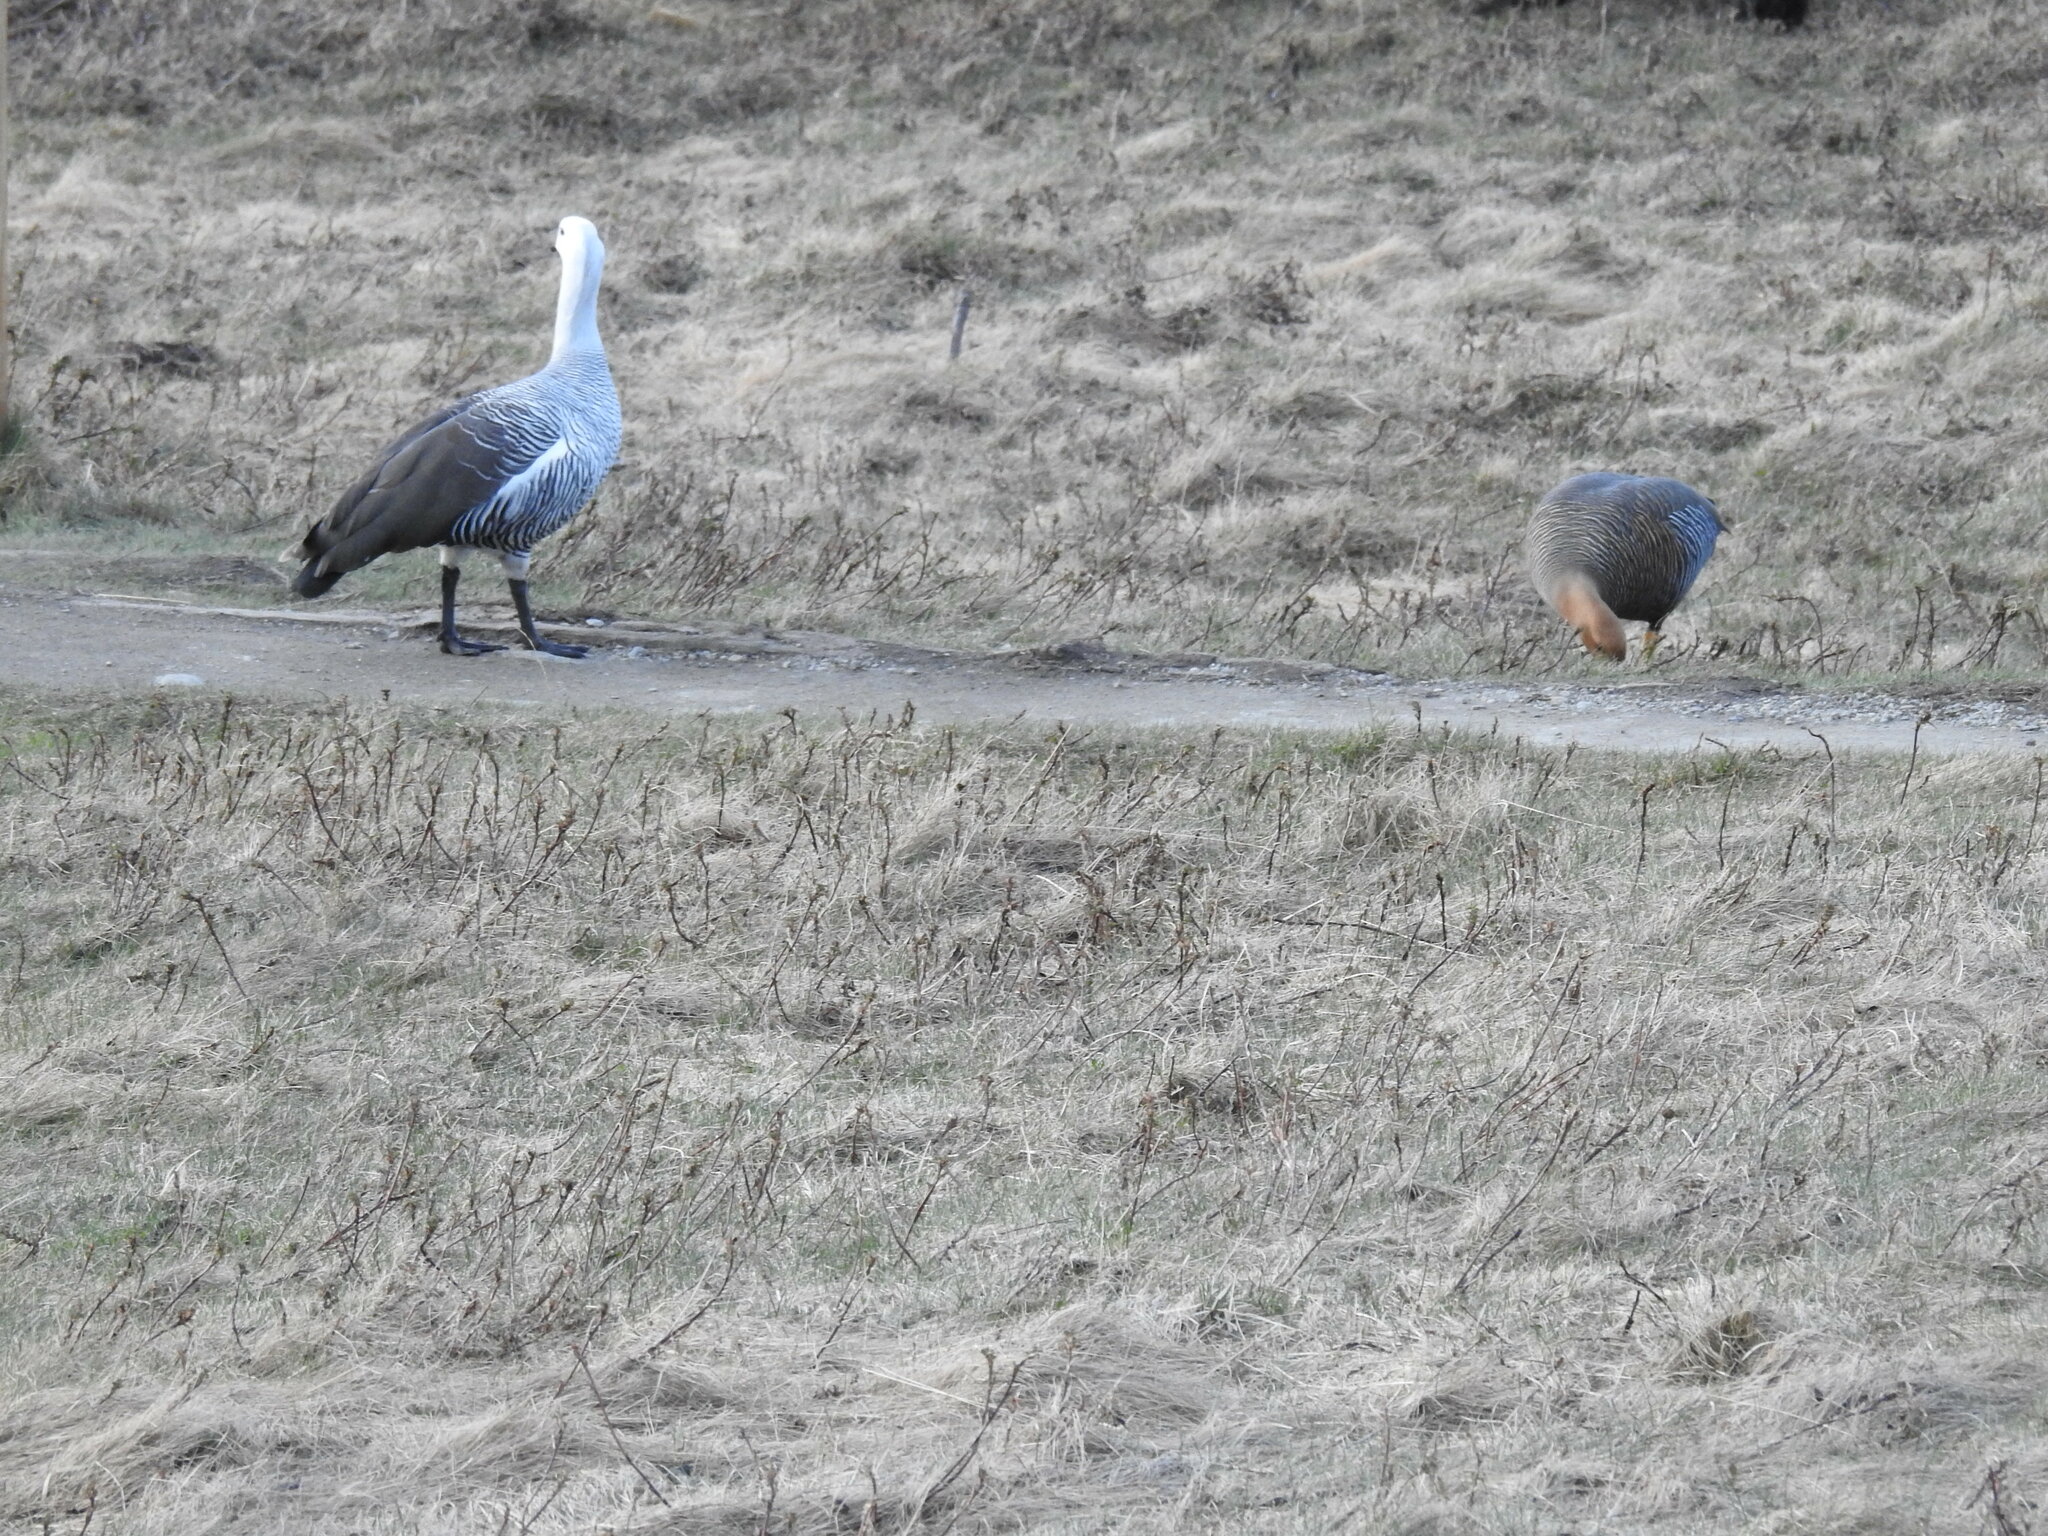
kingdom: Animalia
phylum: Chordata
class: Aves
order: Anseriformes
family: Anatidae
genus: Chloephaga
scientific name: Chloephaga picta
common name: Upland goose
